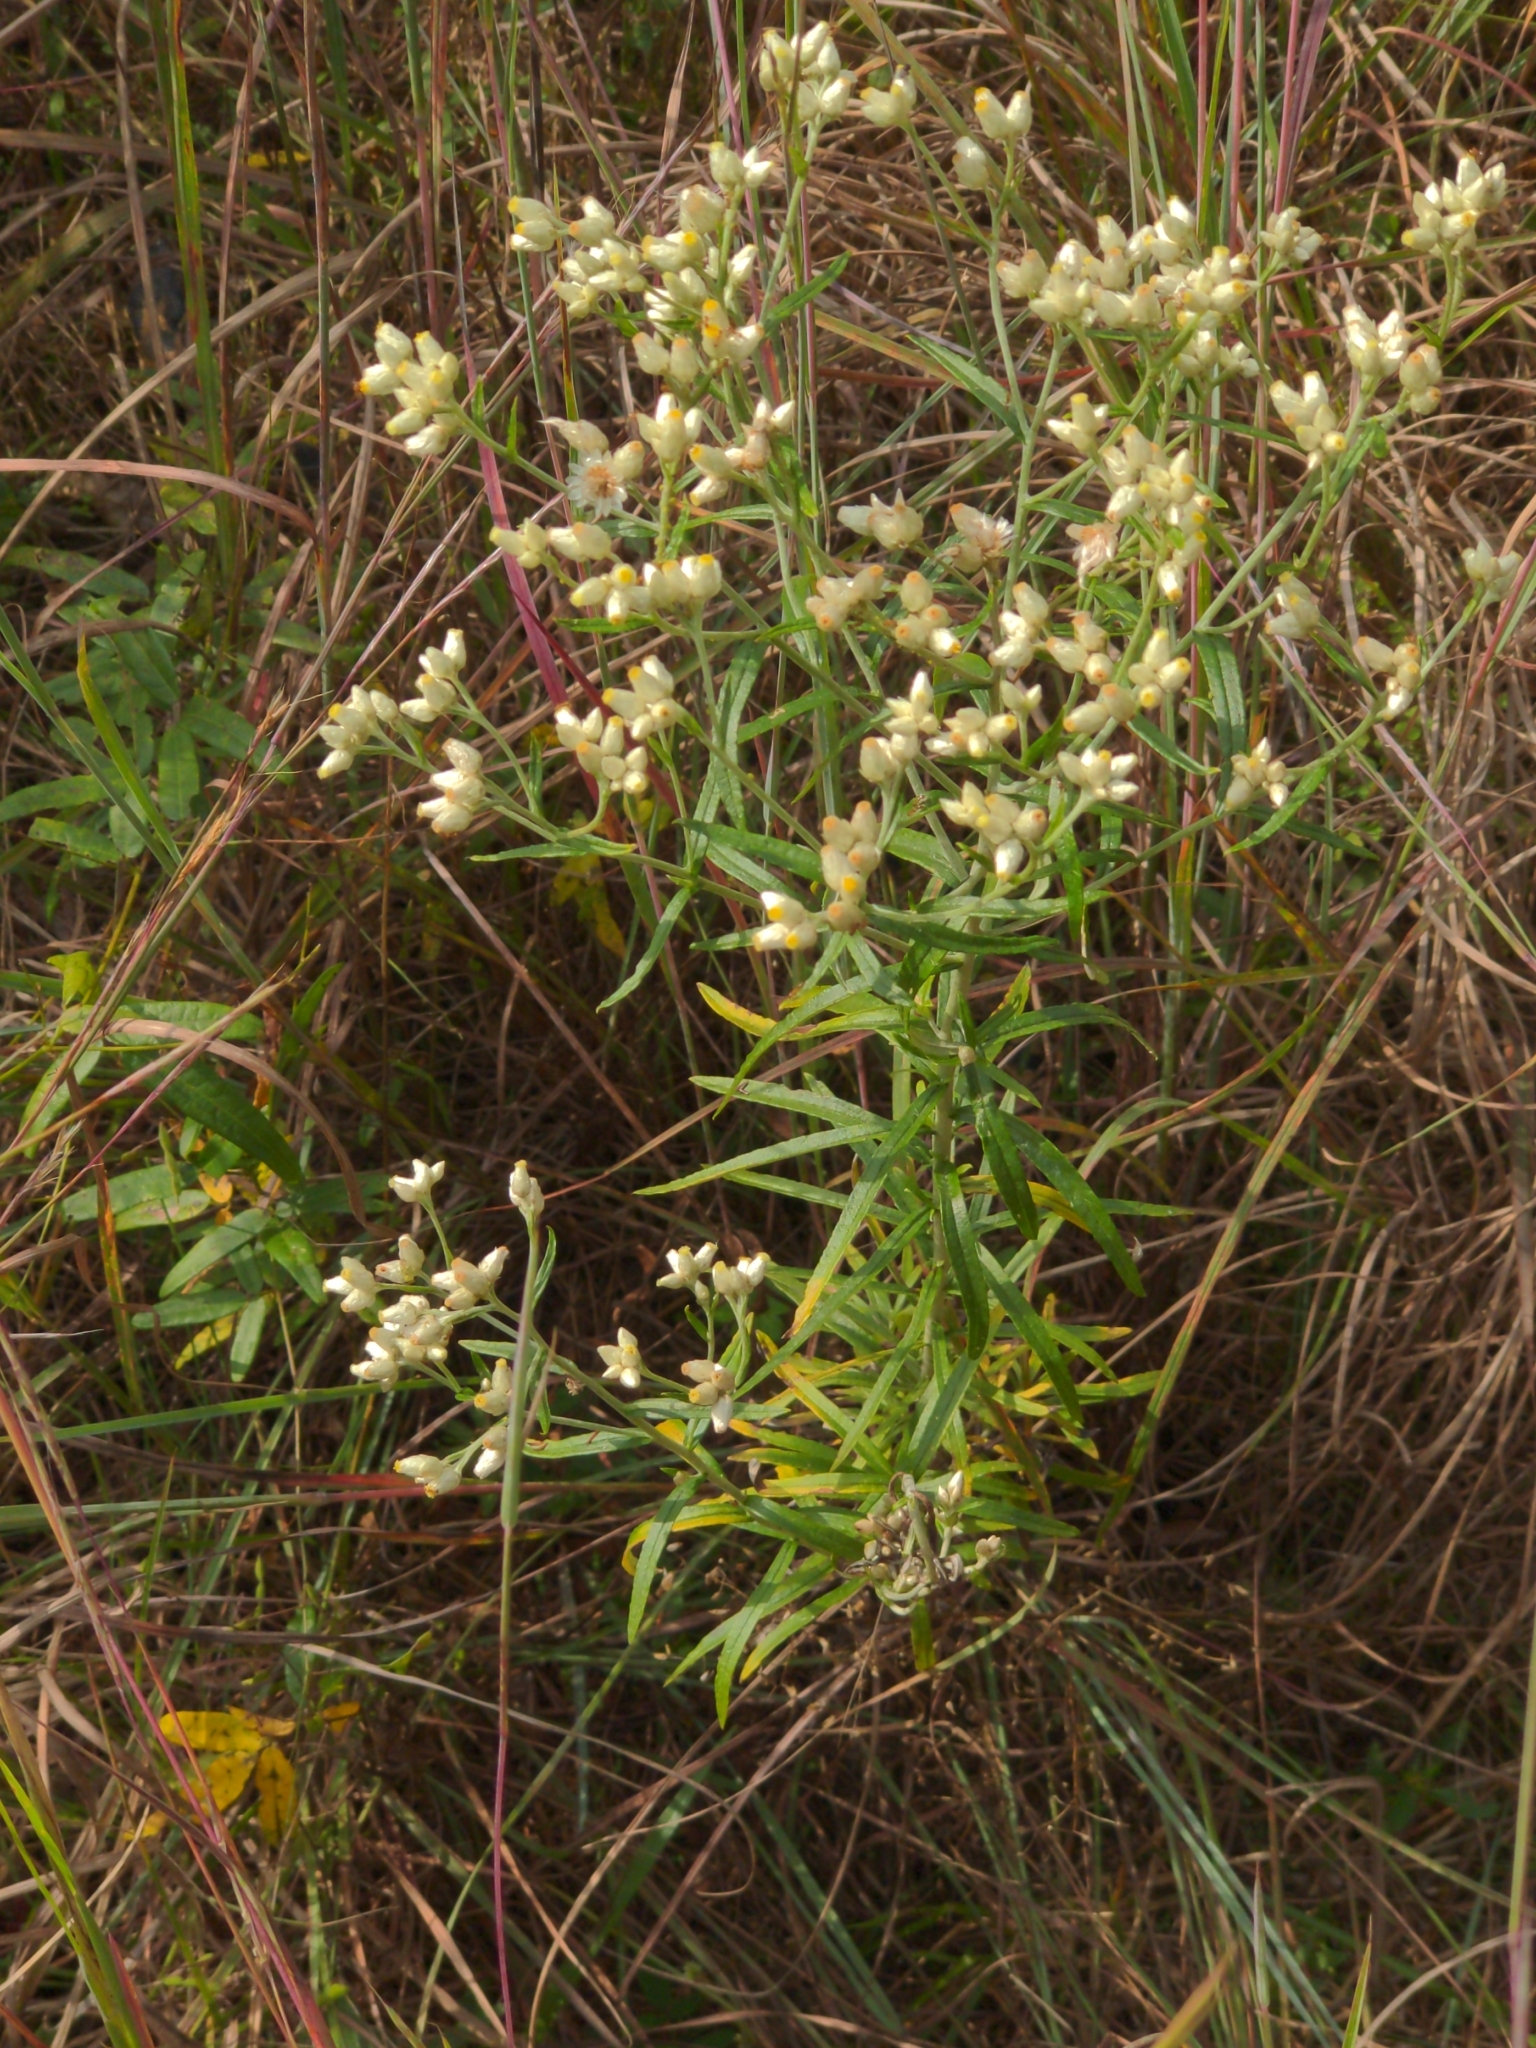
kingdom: Plantae
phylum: Tracheophyta
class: Magnoliopsida
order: Asterales
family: Asteraceae
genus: Pseudognaphalium
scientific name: Pseudognaphalium obtusifolium
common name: Eastern rabbit-tobacco
